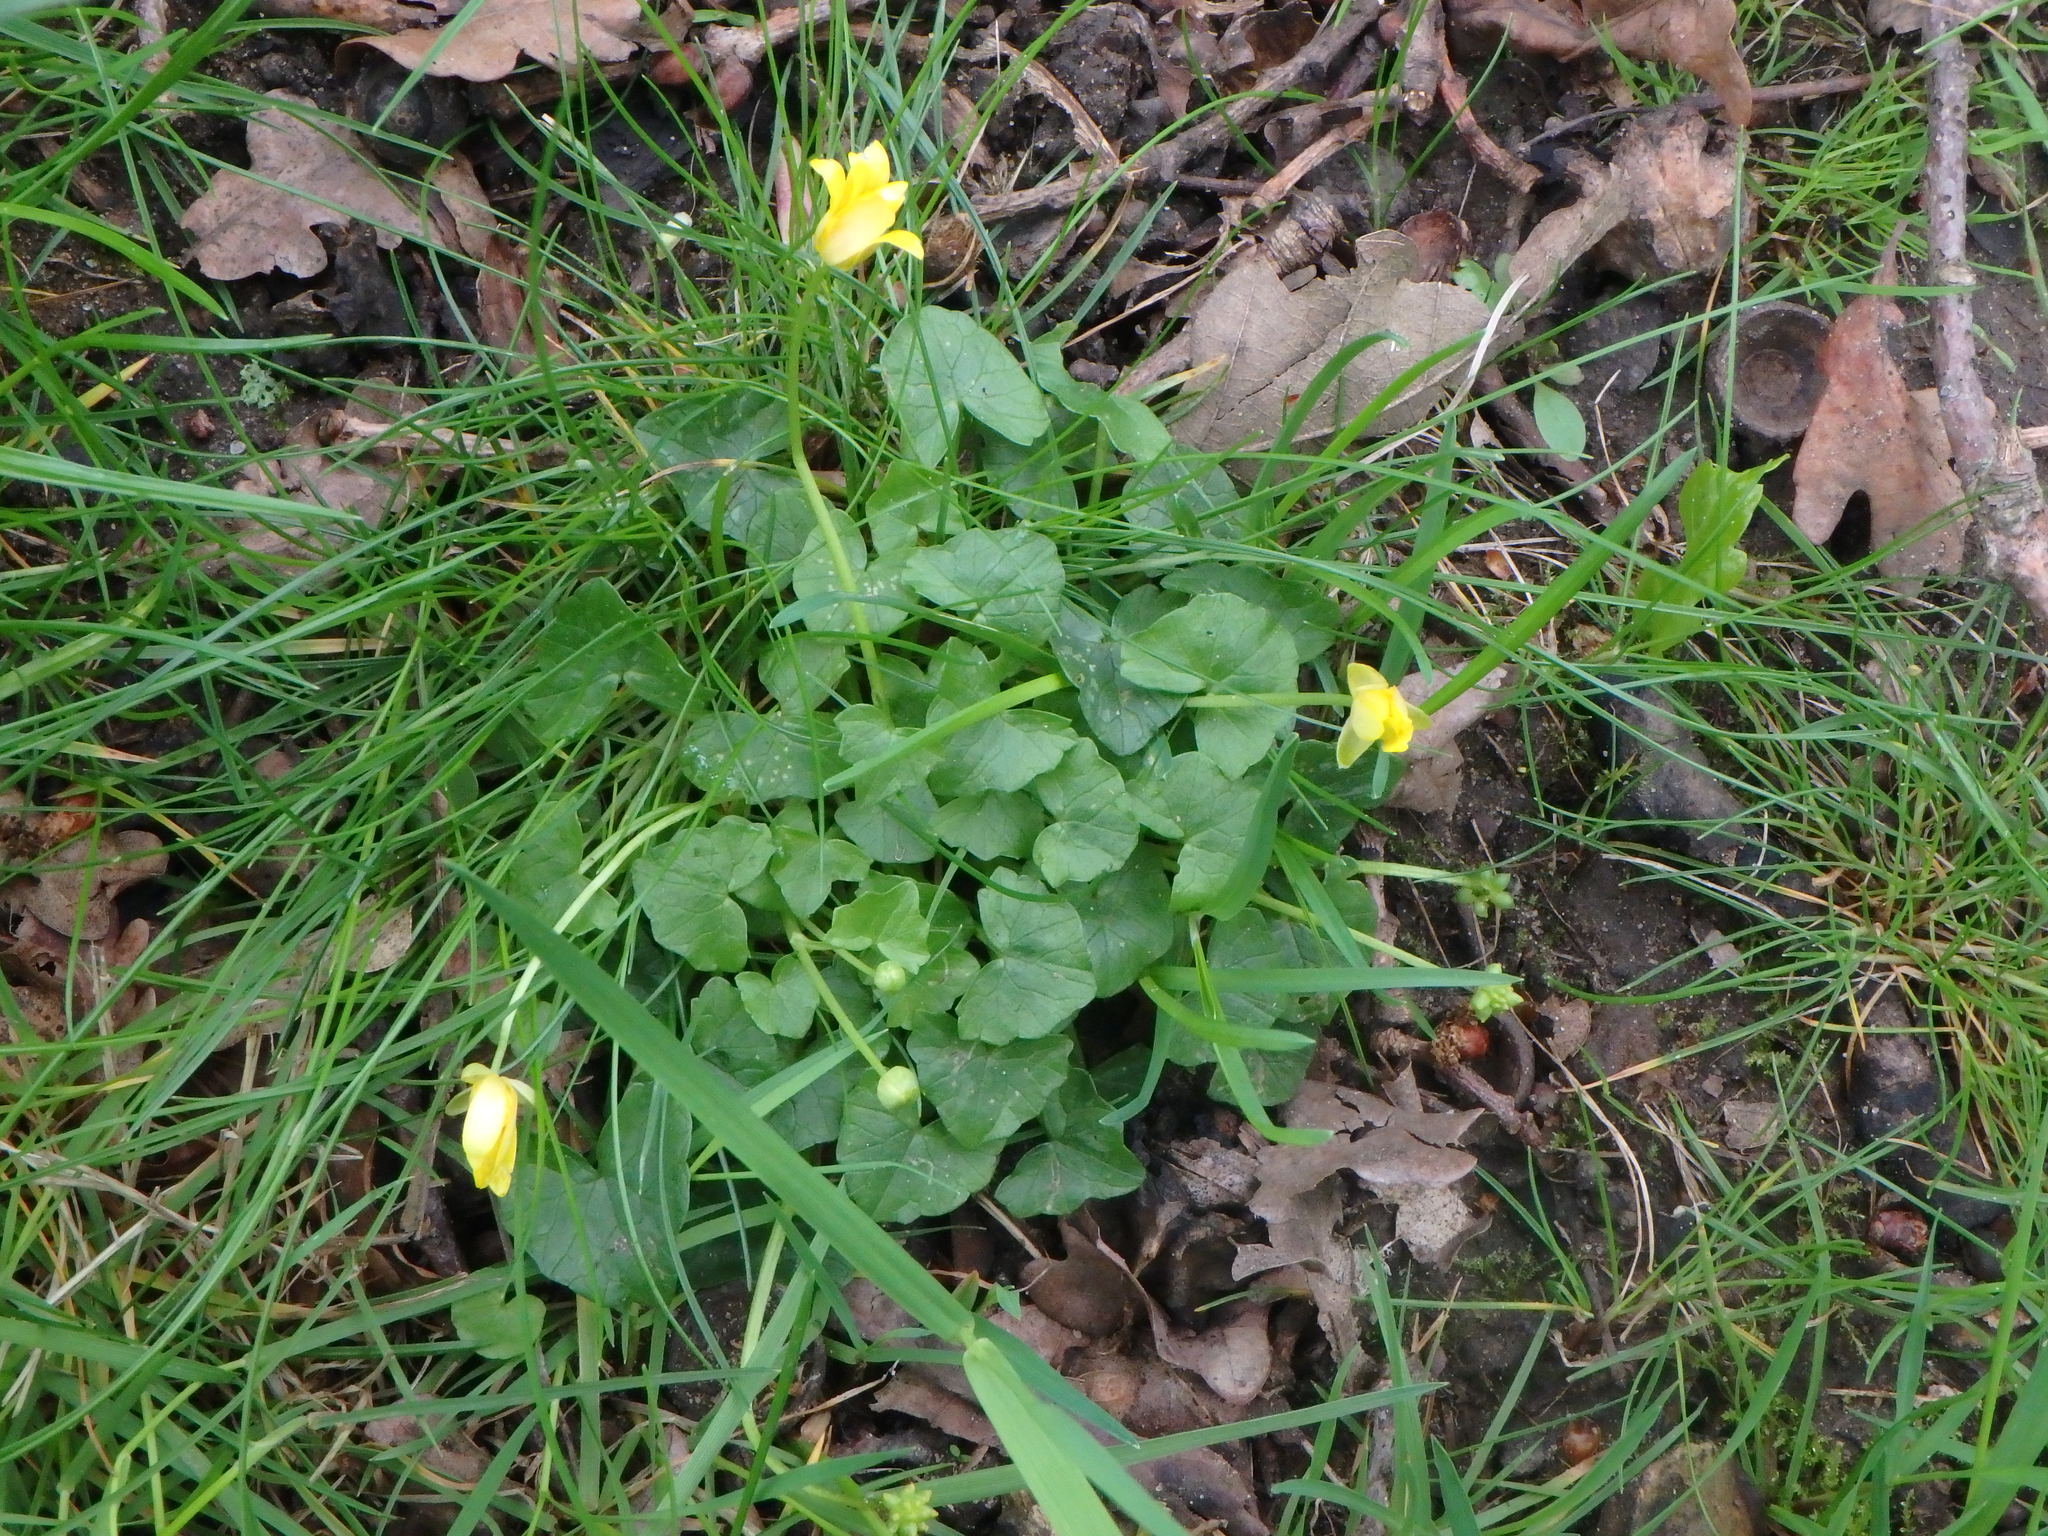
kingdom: Plantae
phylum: Tracheophyta
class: Magnoliopsida
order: Ranunculales
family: Ranunculaceae
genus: Ficaria
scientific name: Ficaria verna
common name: Lesser celandine
